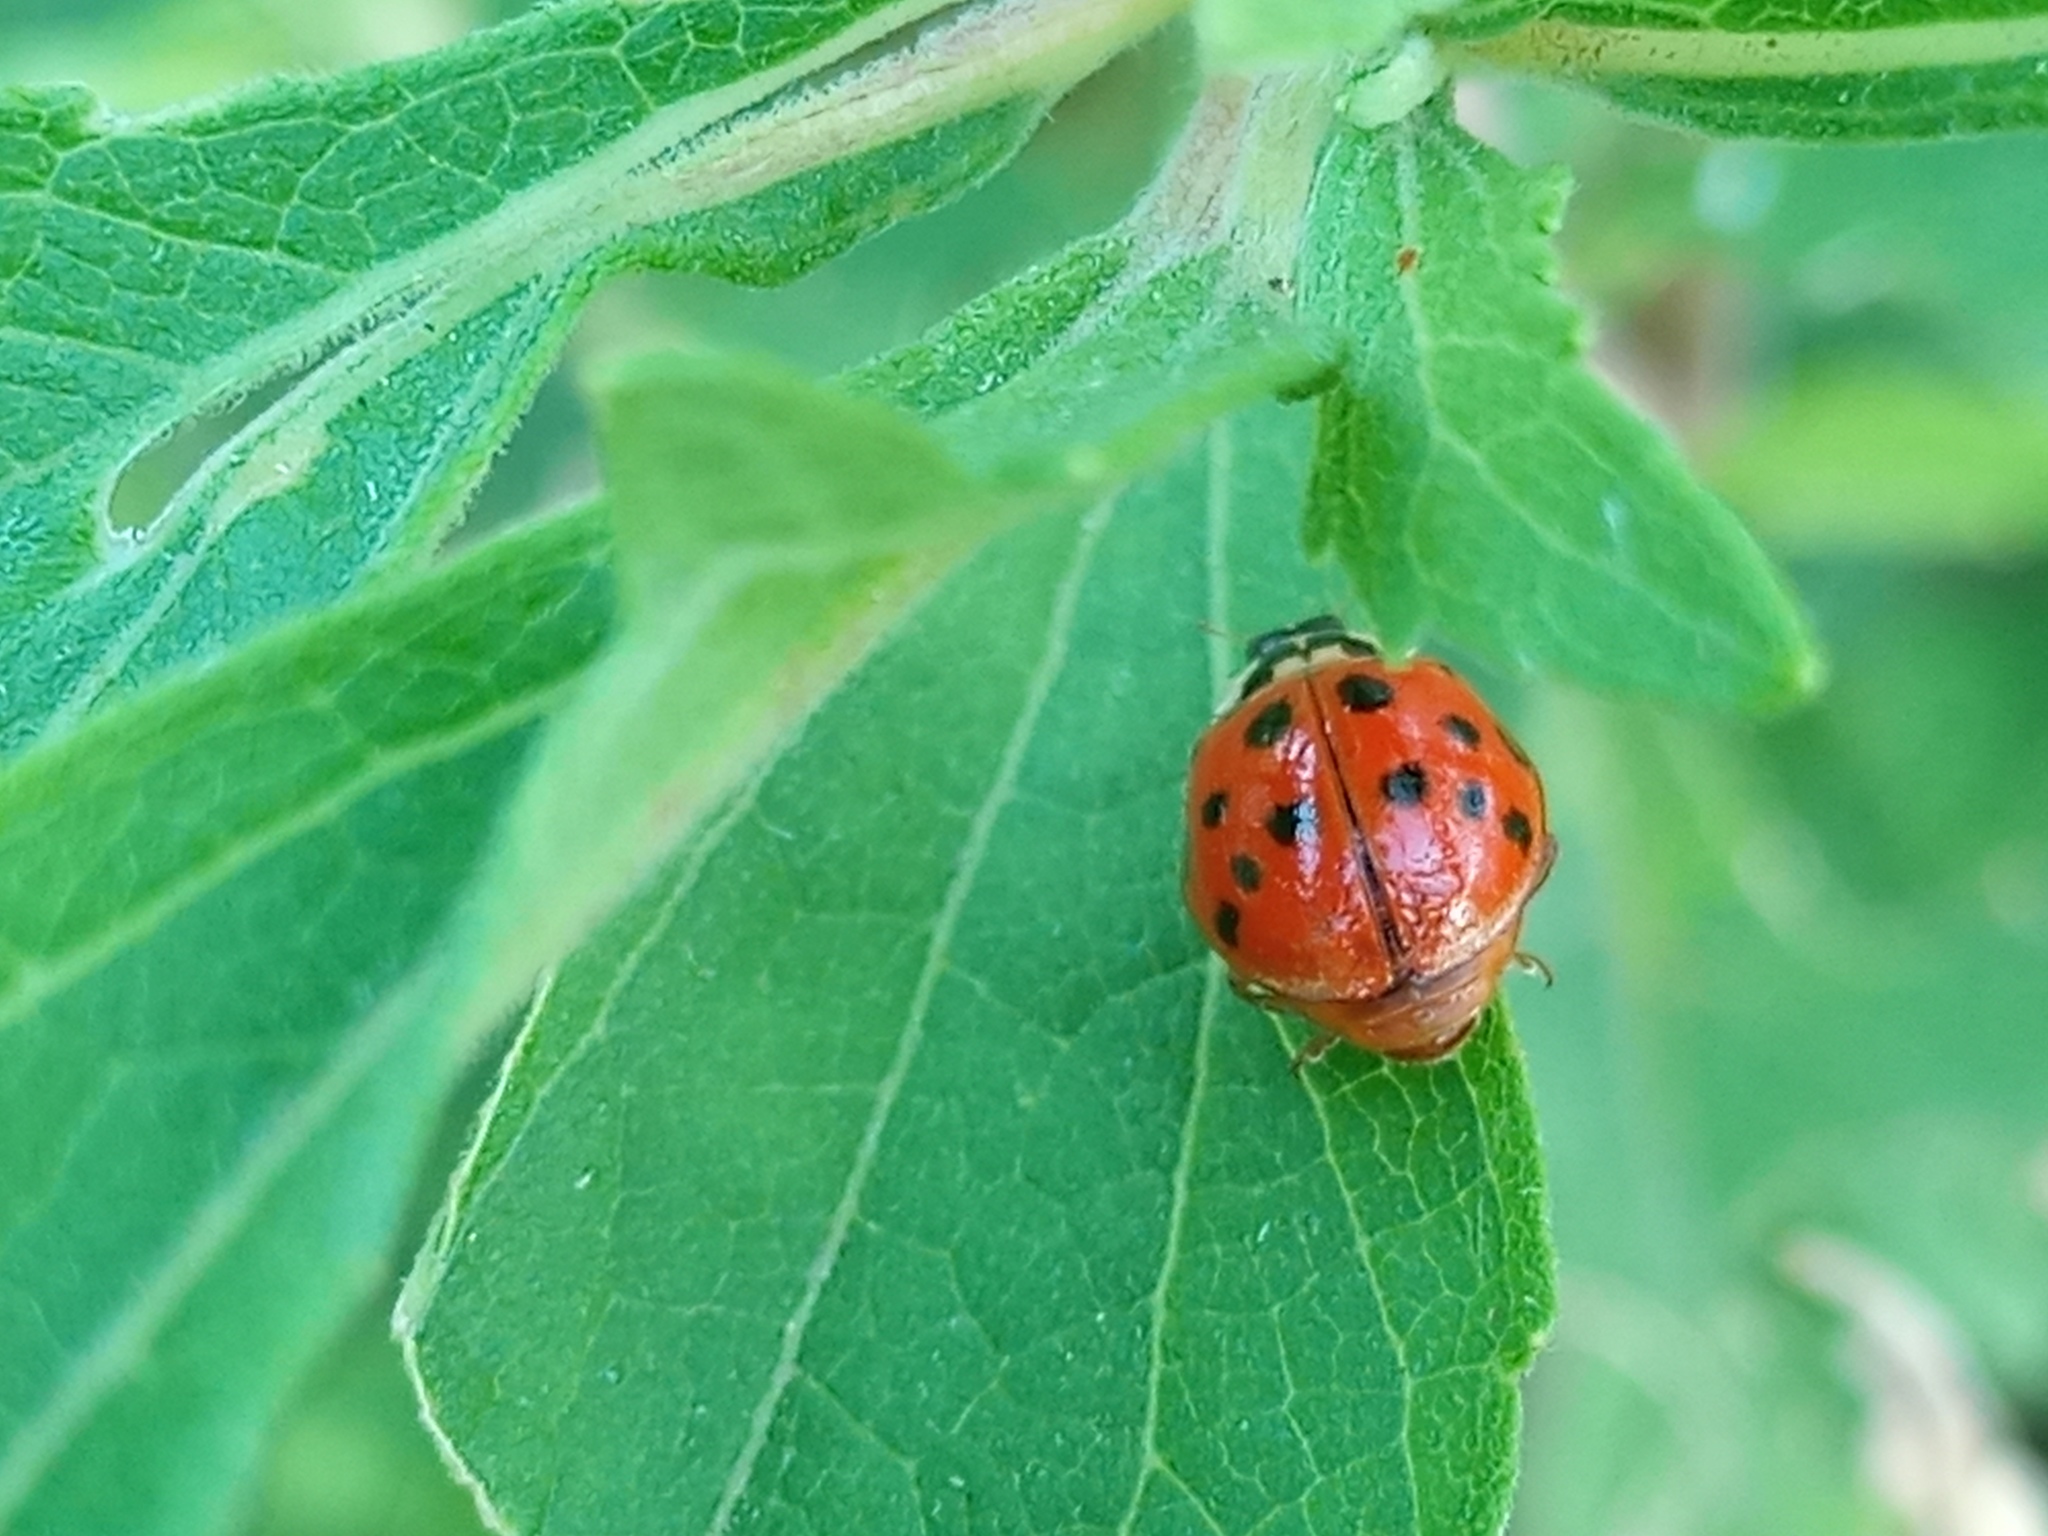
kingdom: Animalia
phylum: Arthropoda
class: Insecta
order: Coleoptera
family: Coccinellidae
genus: Harmonia
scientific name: Harmonia axyridis
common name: Harlequin ladybird
